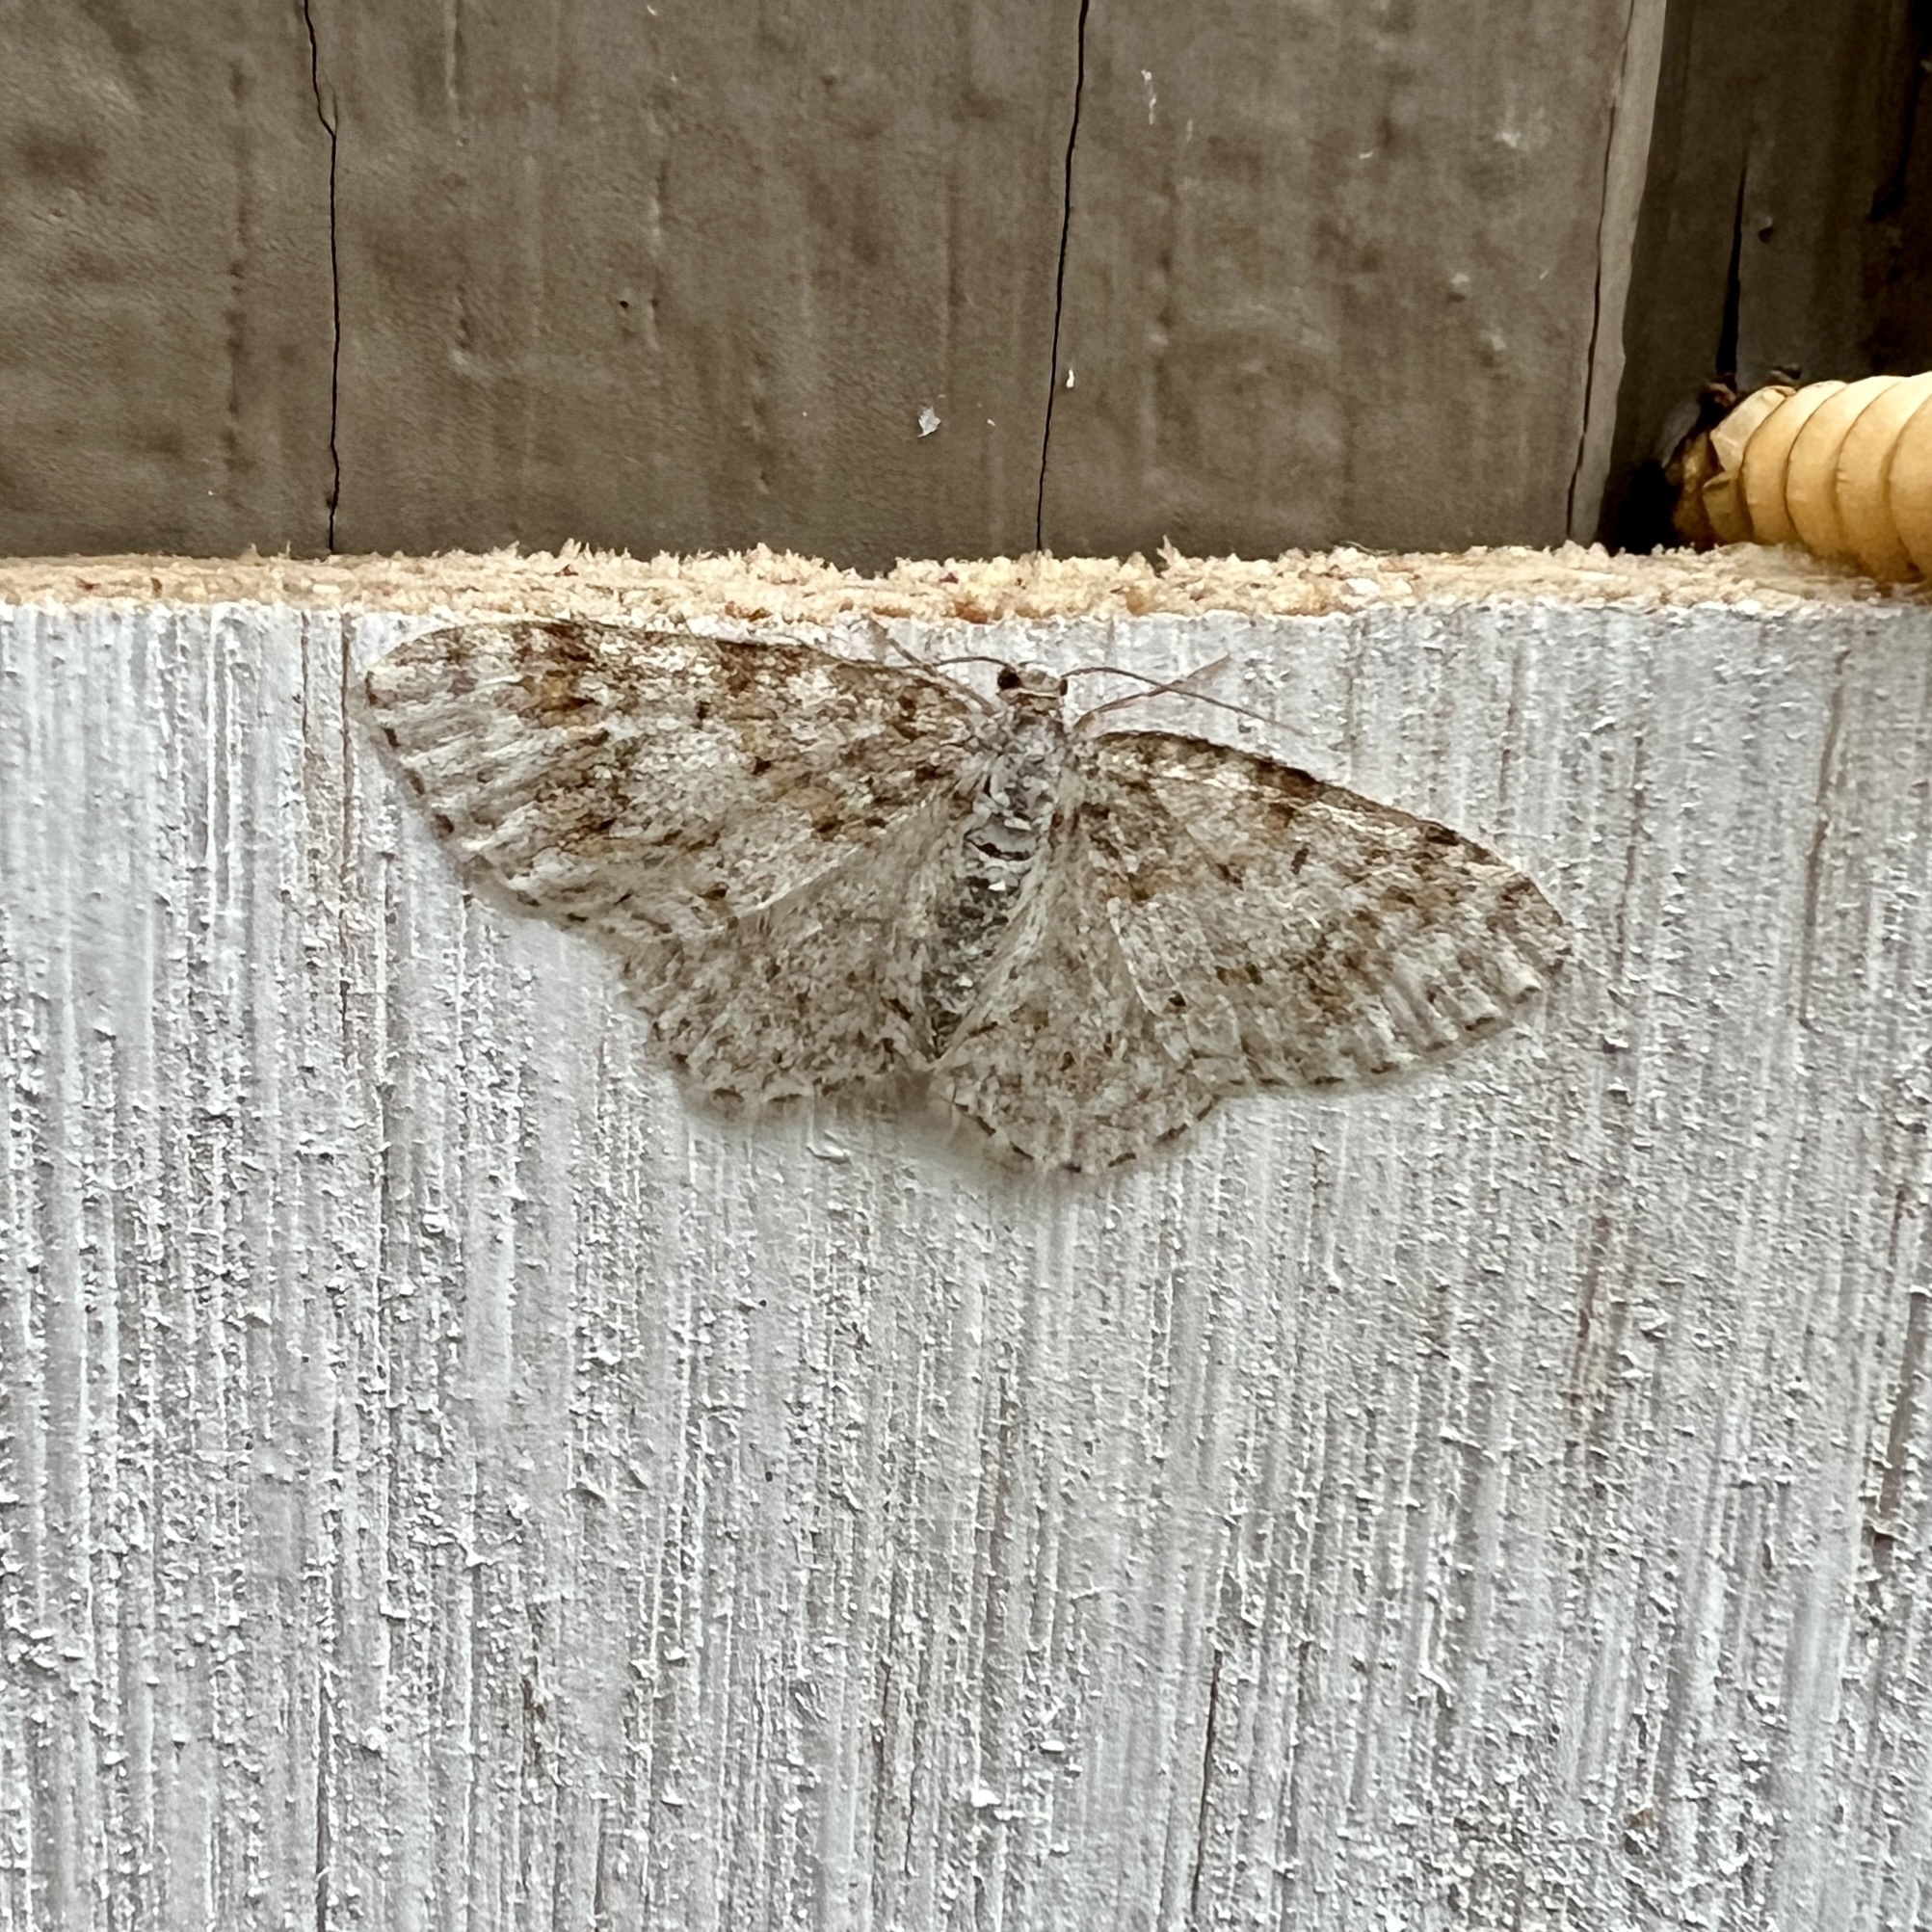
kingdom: Animalia
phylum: Arthropoda
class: Insecta
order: Lepidoptera
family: Geometridae
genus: Hydrelia
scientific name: Hydrelia inornata
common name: Unadorned carpet moth
